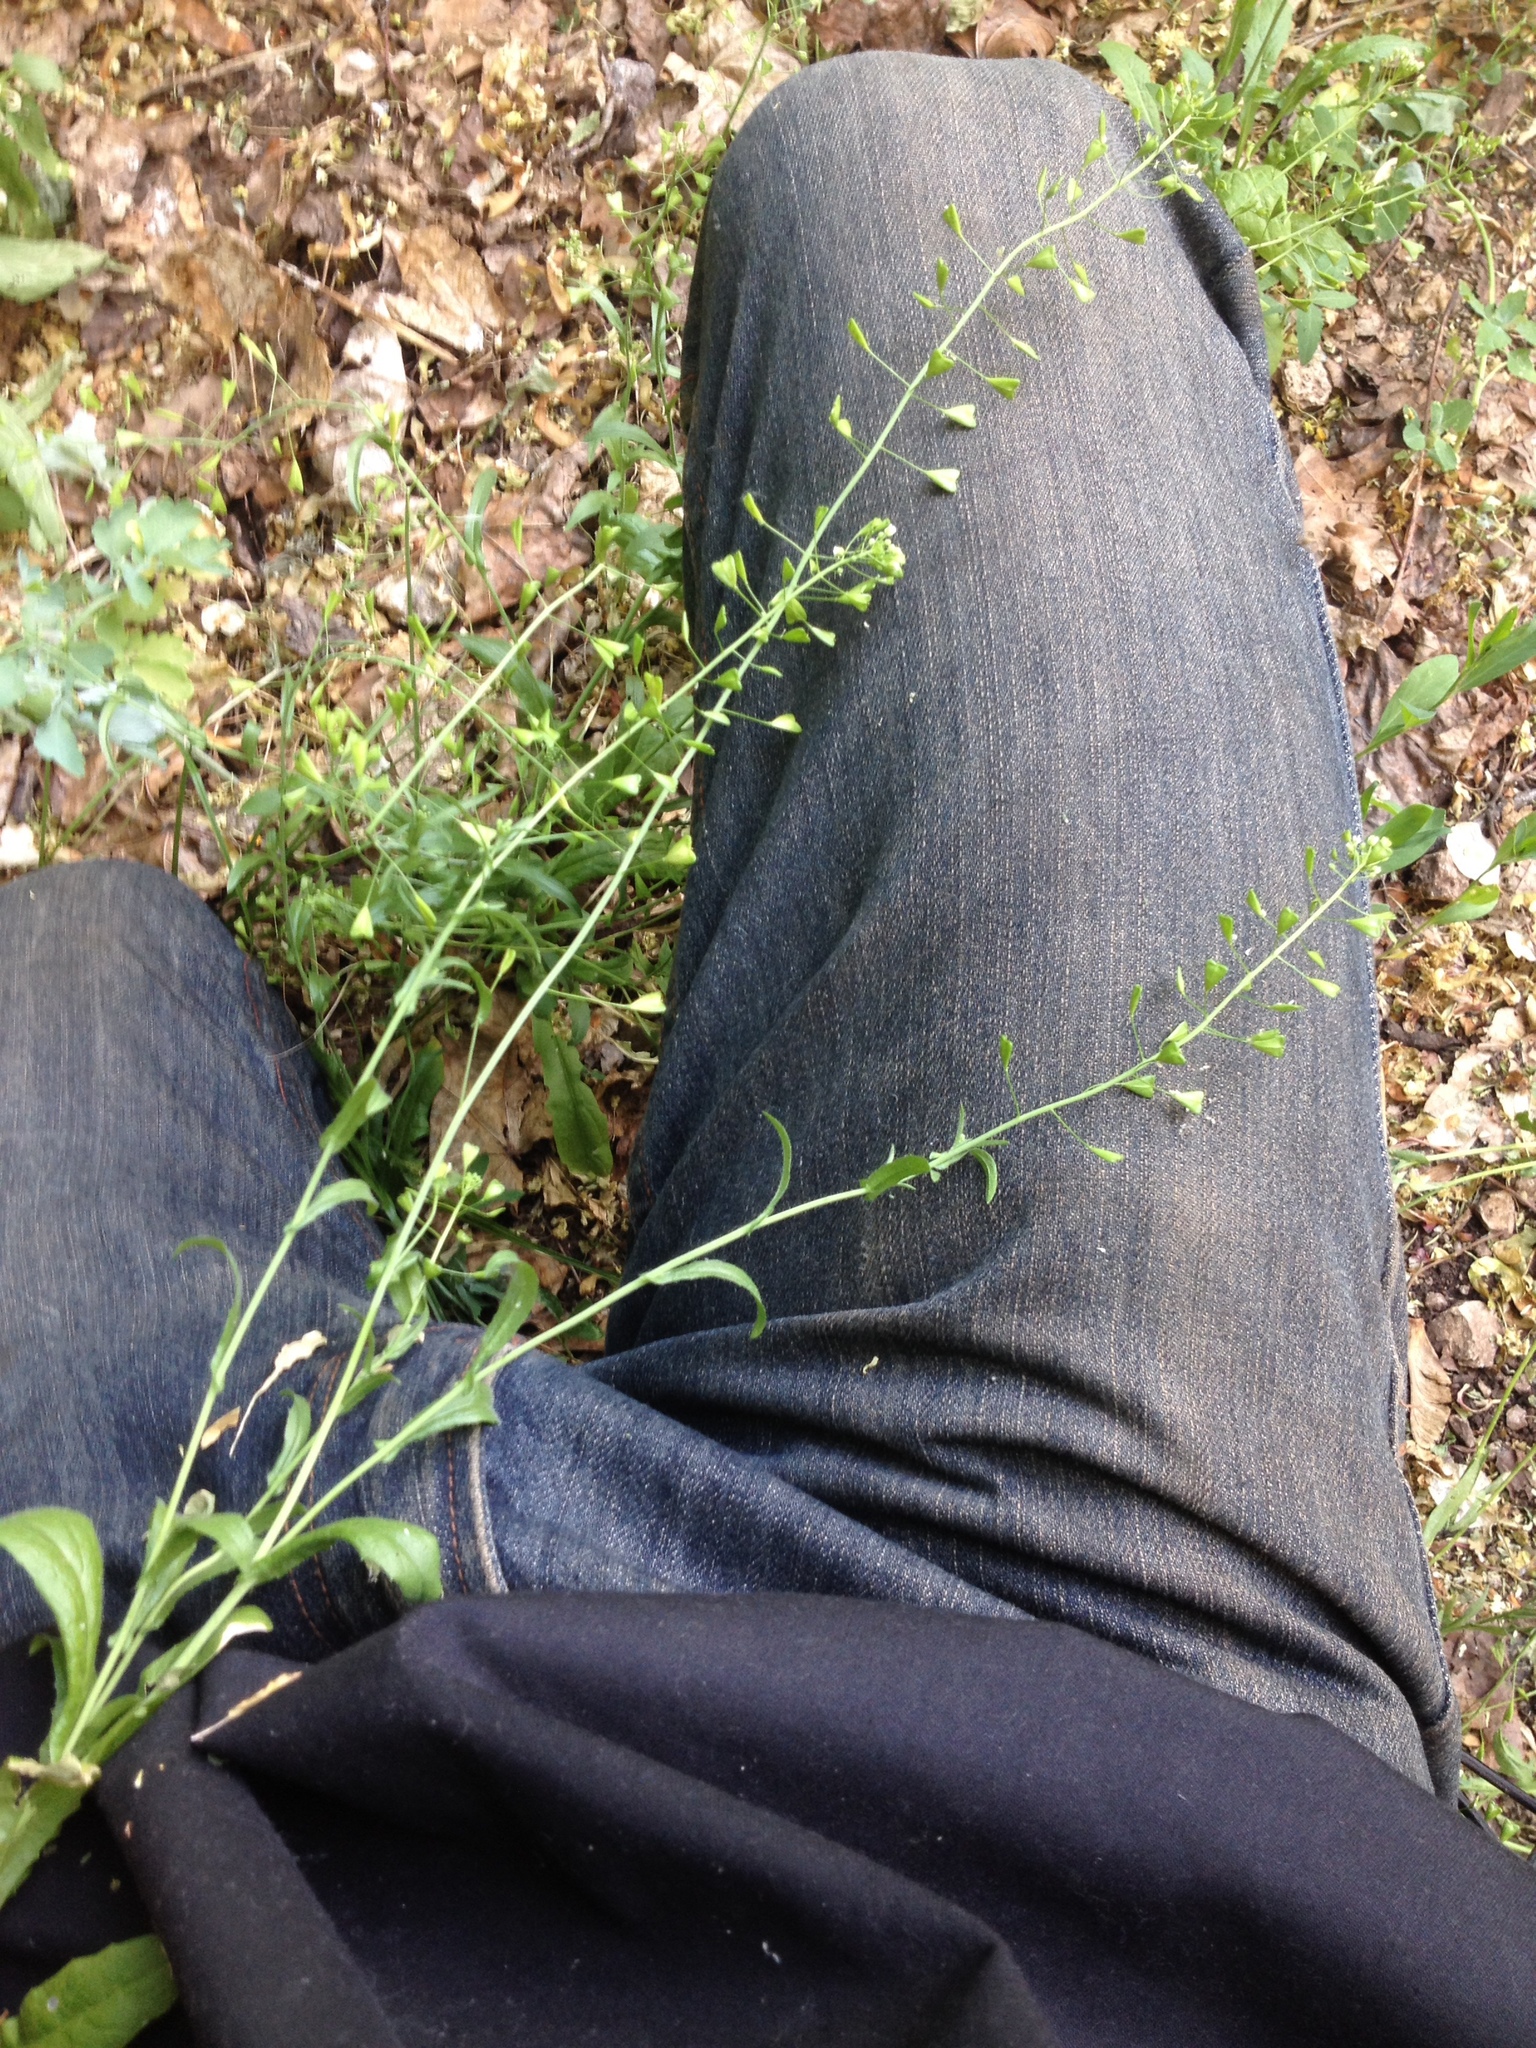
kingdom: Plantae
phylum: Tracheophyta
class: Magnoliopsida
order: Brassicales
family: Brassicaceae
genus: Capsella
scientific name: Capsella bursa-pastoris
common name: Shepherd's purse
